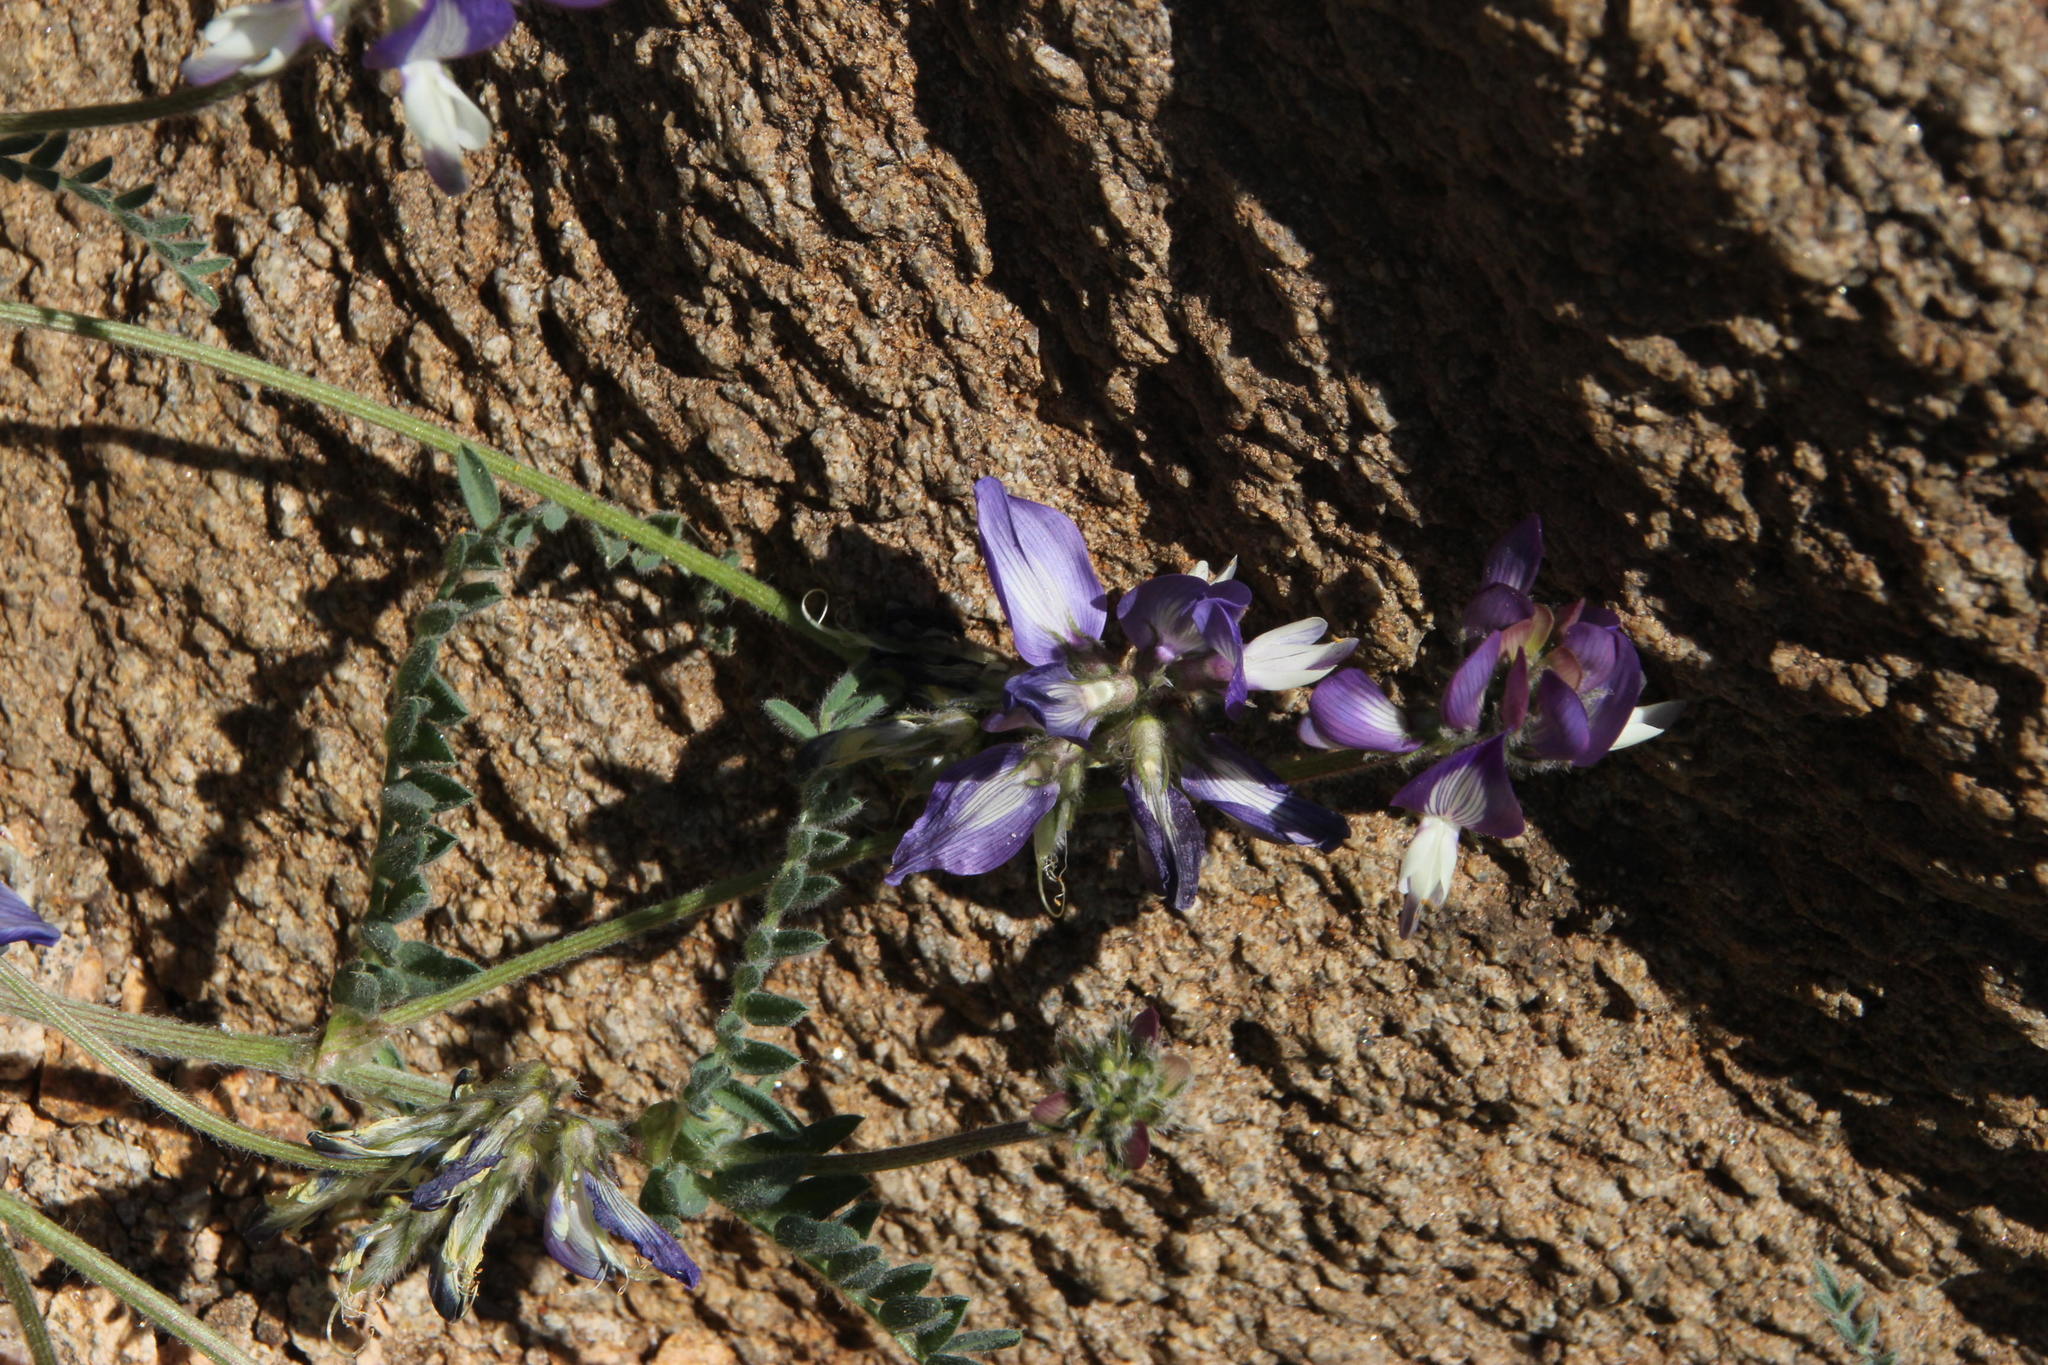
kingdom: Plantae
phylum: Tracheophyta
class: Magnoliopsida
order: Fabales
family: Fabaceae
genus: Astragalus
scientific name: Astragalus amatus
